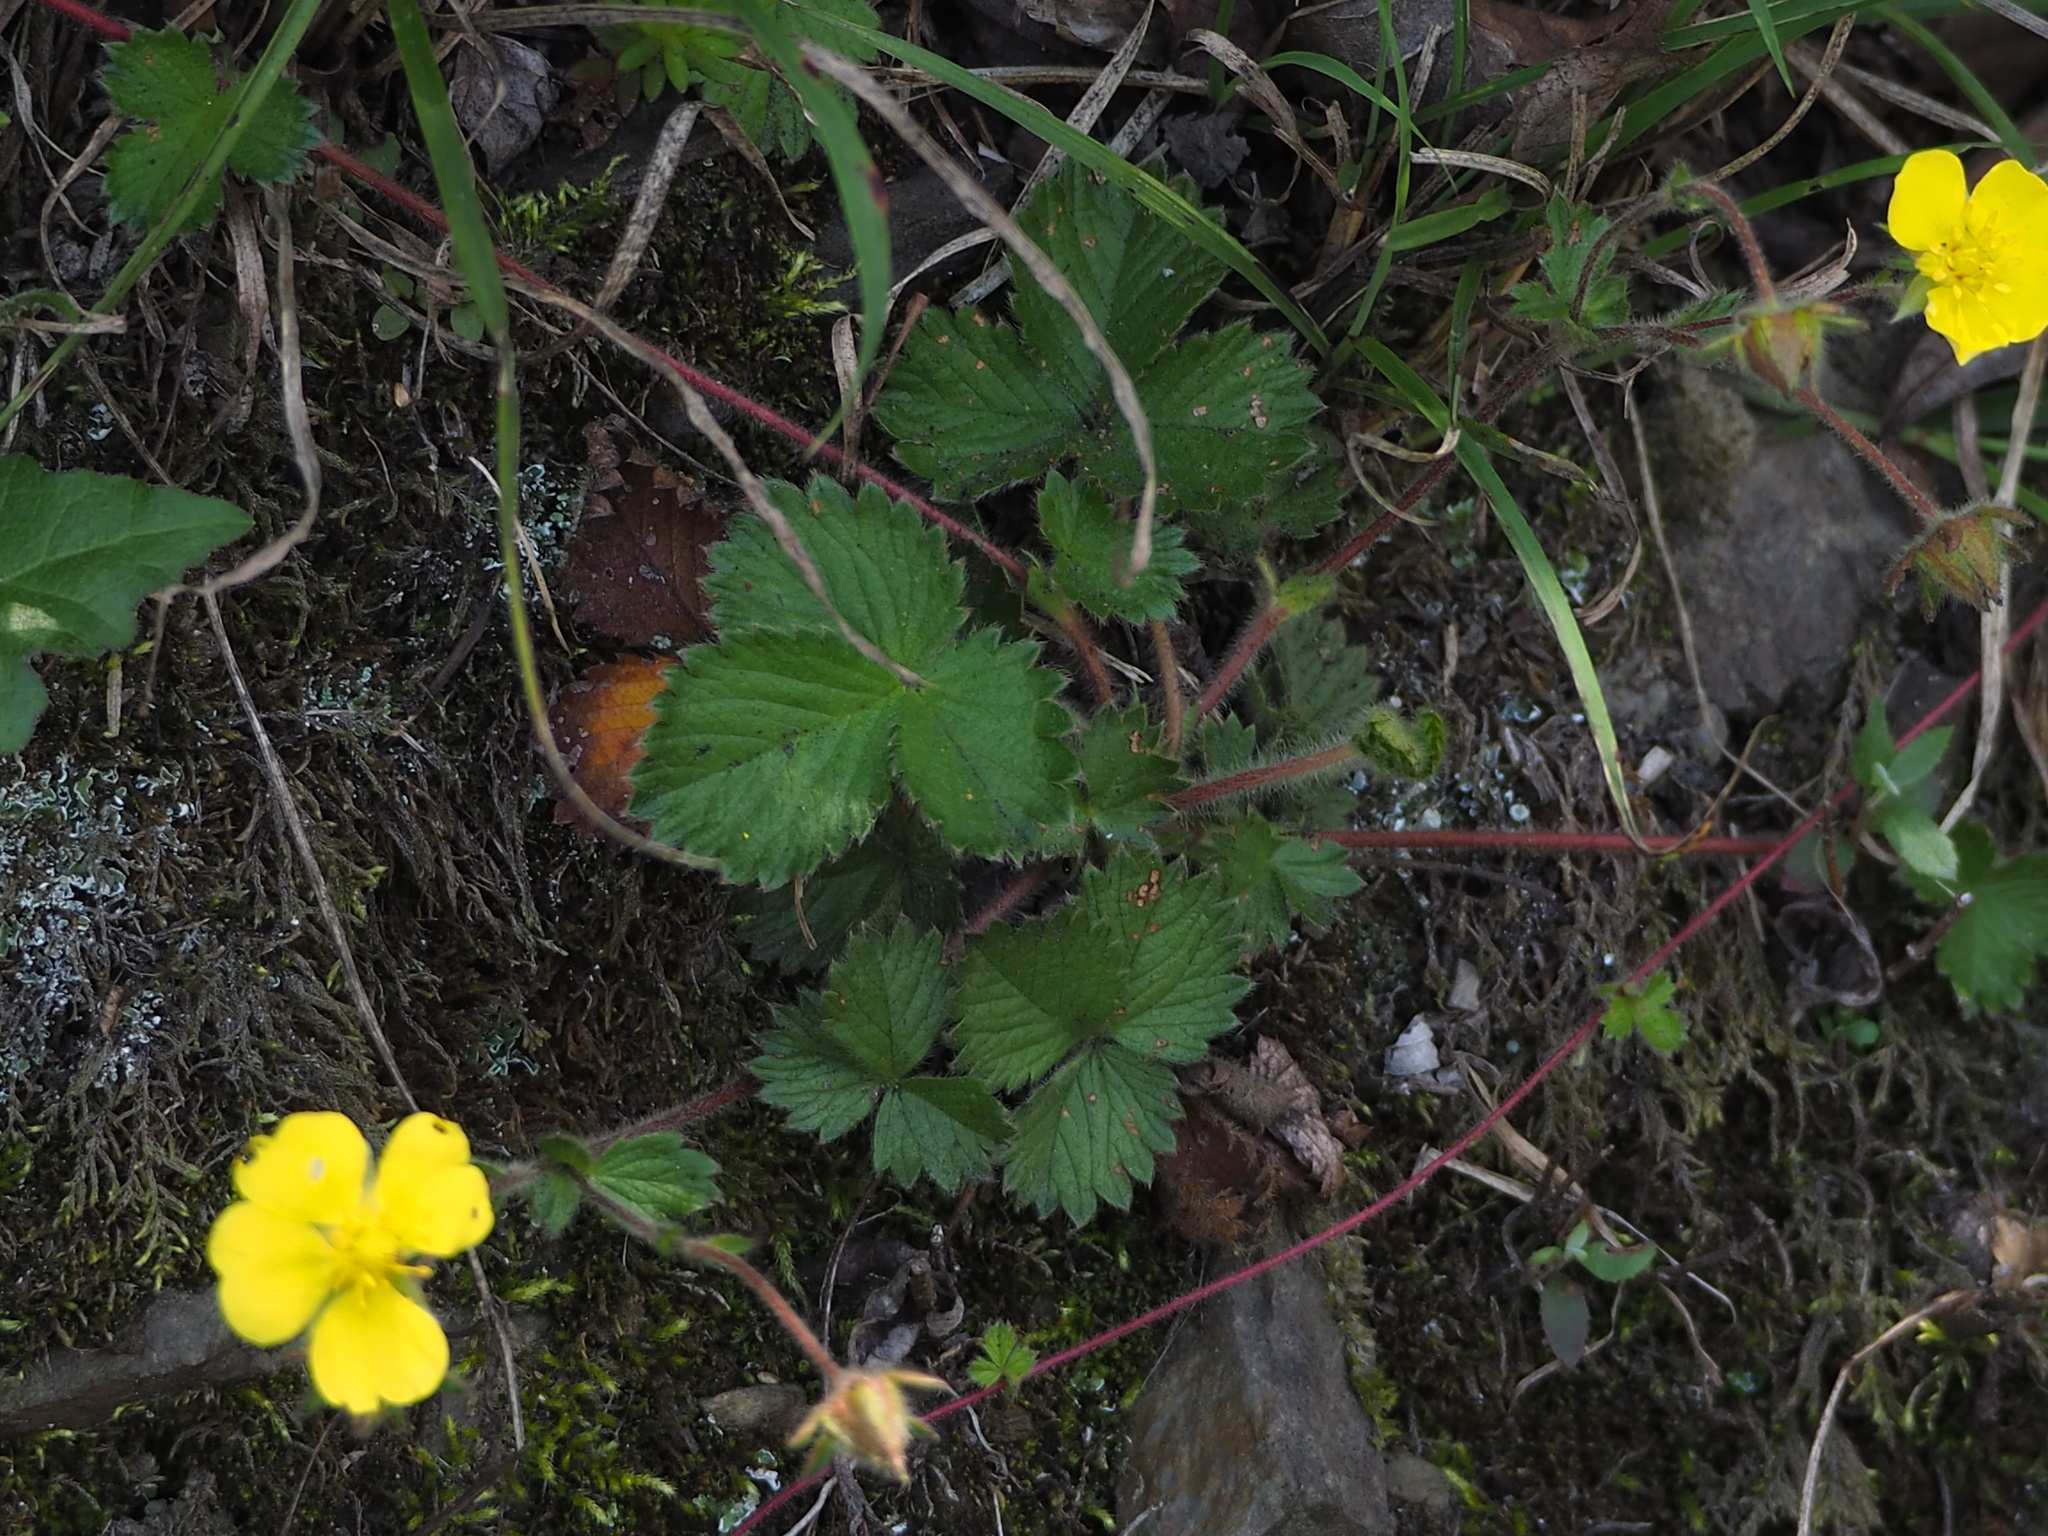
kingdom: Plantae
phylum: Tracheophyta
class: Magnoliopsida
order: Rosales
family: Rosaceae
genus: Potentilla
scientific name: Potentilla matsumurae
